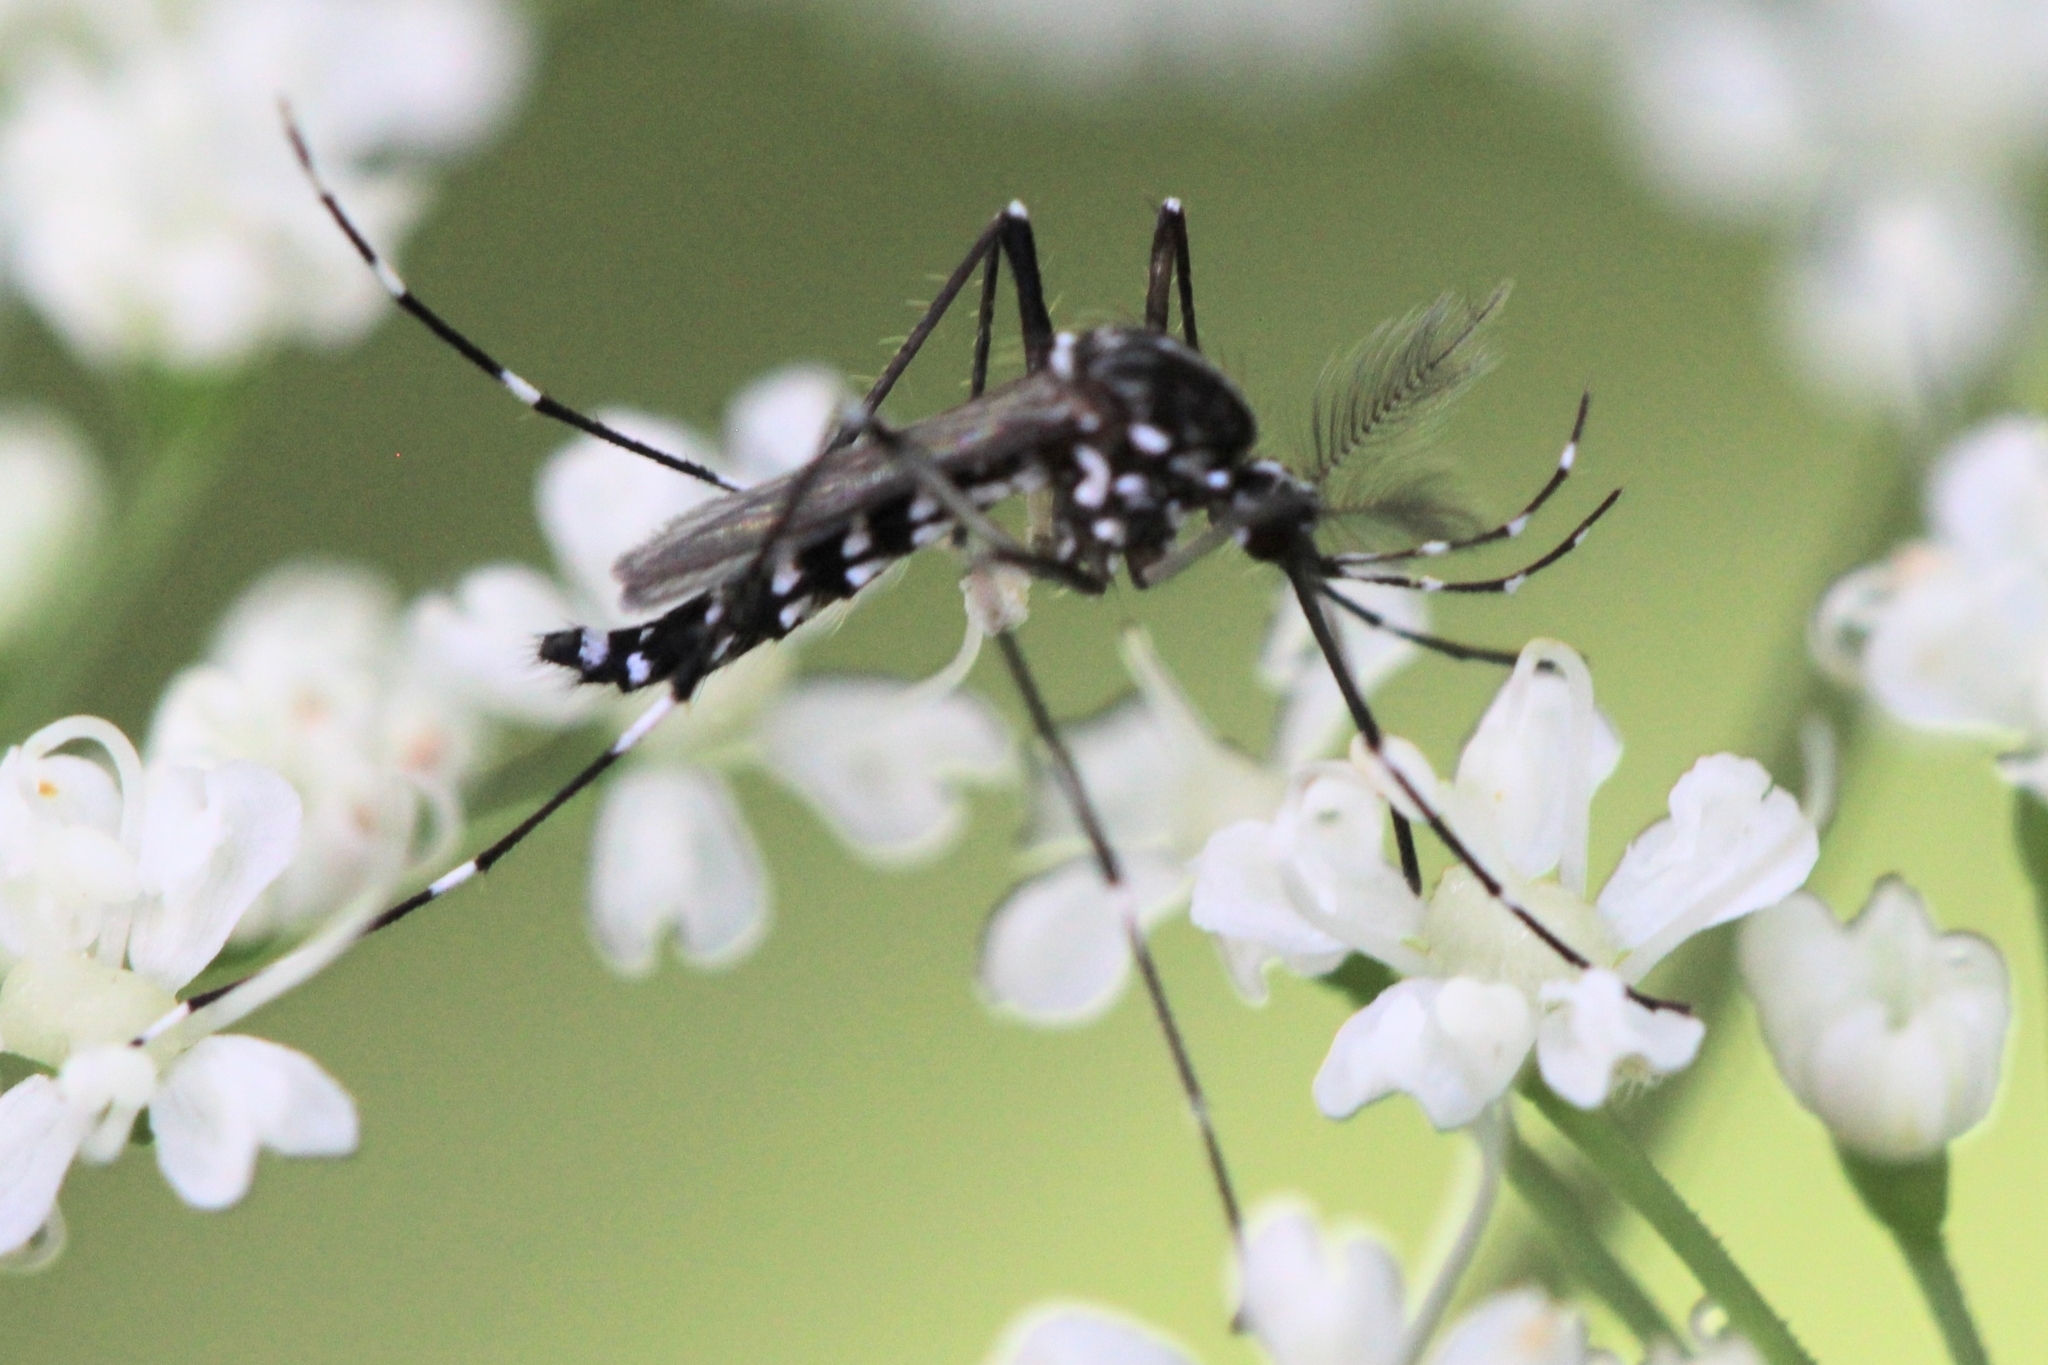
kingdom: Animalia
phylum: Arthropoda
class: Insecta
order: Diptera
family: Culicidae
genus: Aedes
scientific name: Aedes albopictus
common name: Tiger mosquito
